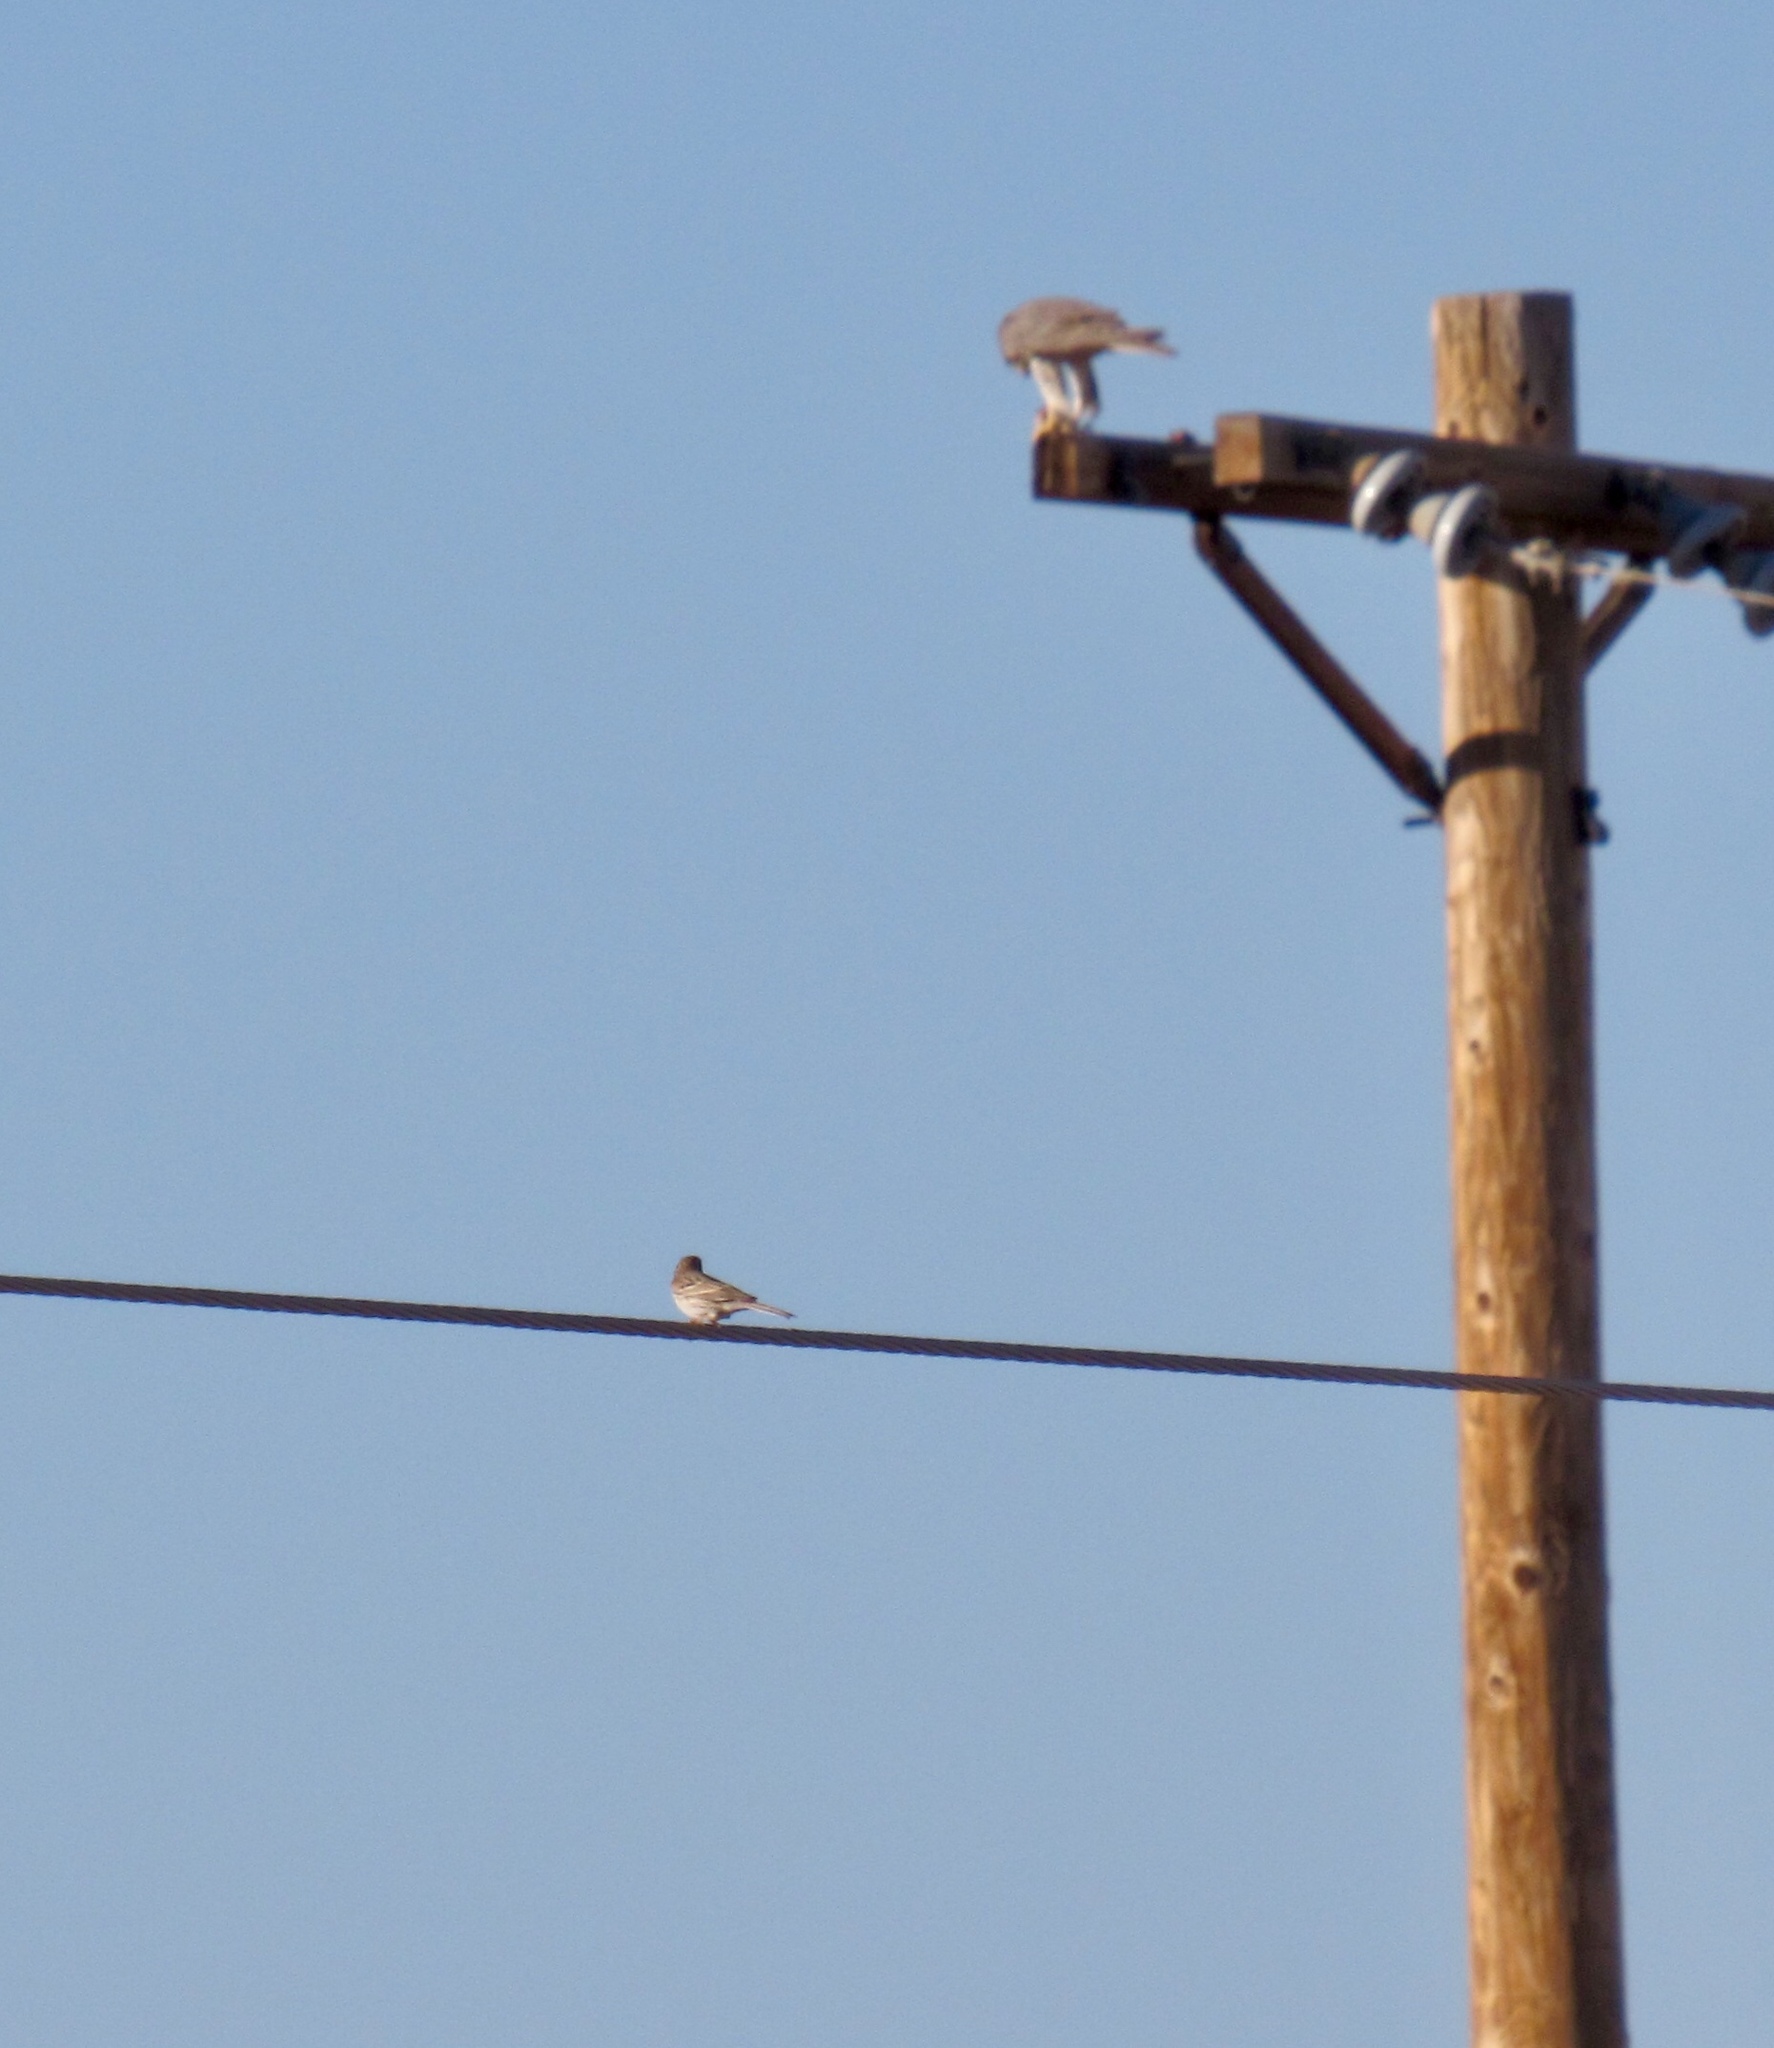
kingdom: Animalia
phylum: Chordata
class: Aves
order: Passeriformes
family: Passerellidae
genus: Pooecetes
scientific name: Pooecetes gramineus
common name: Vesper sparrow
